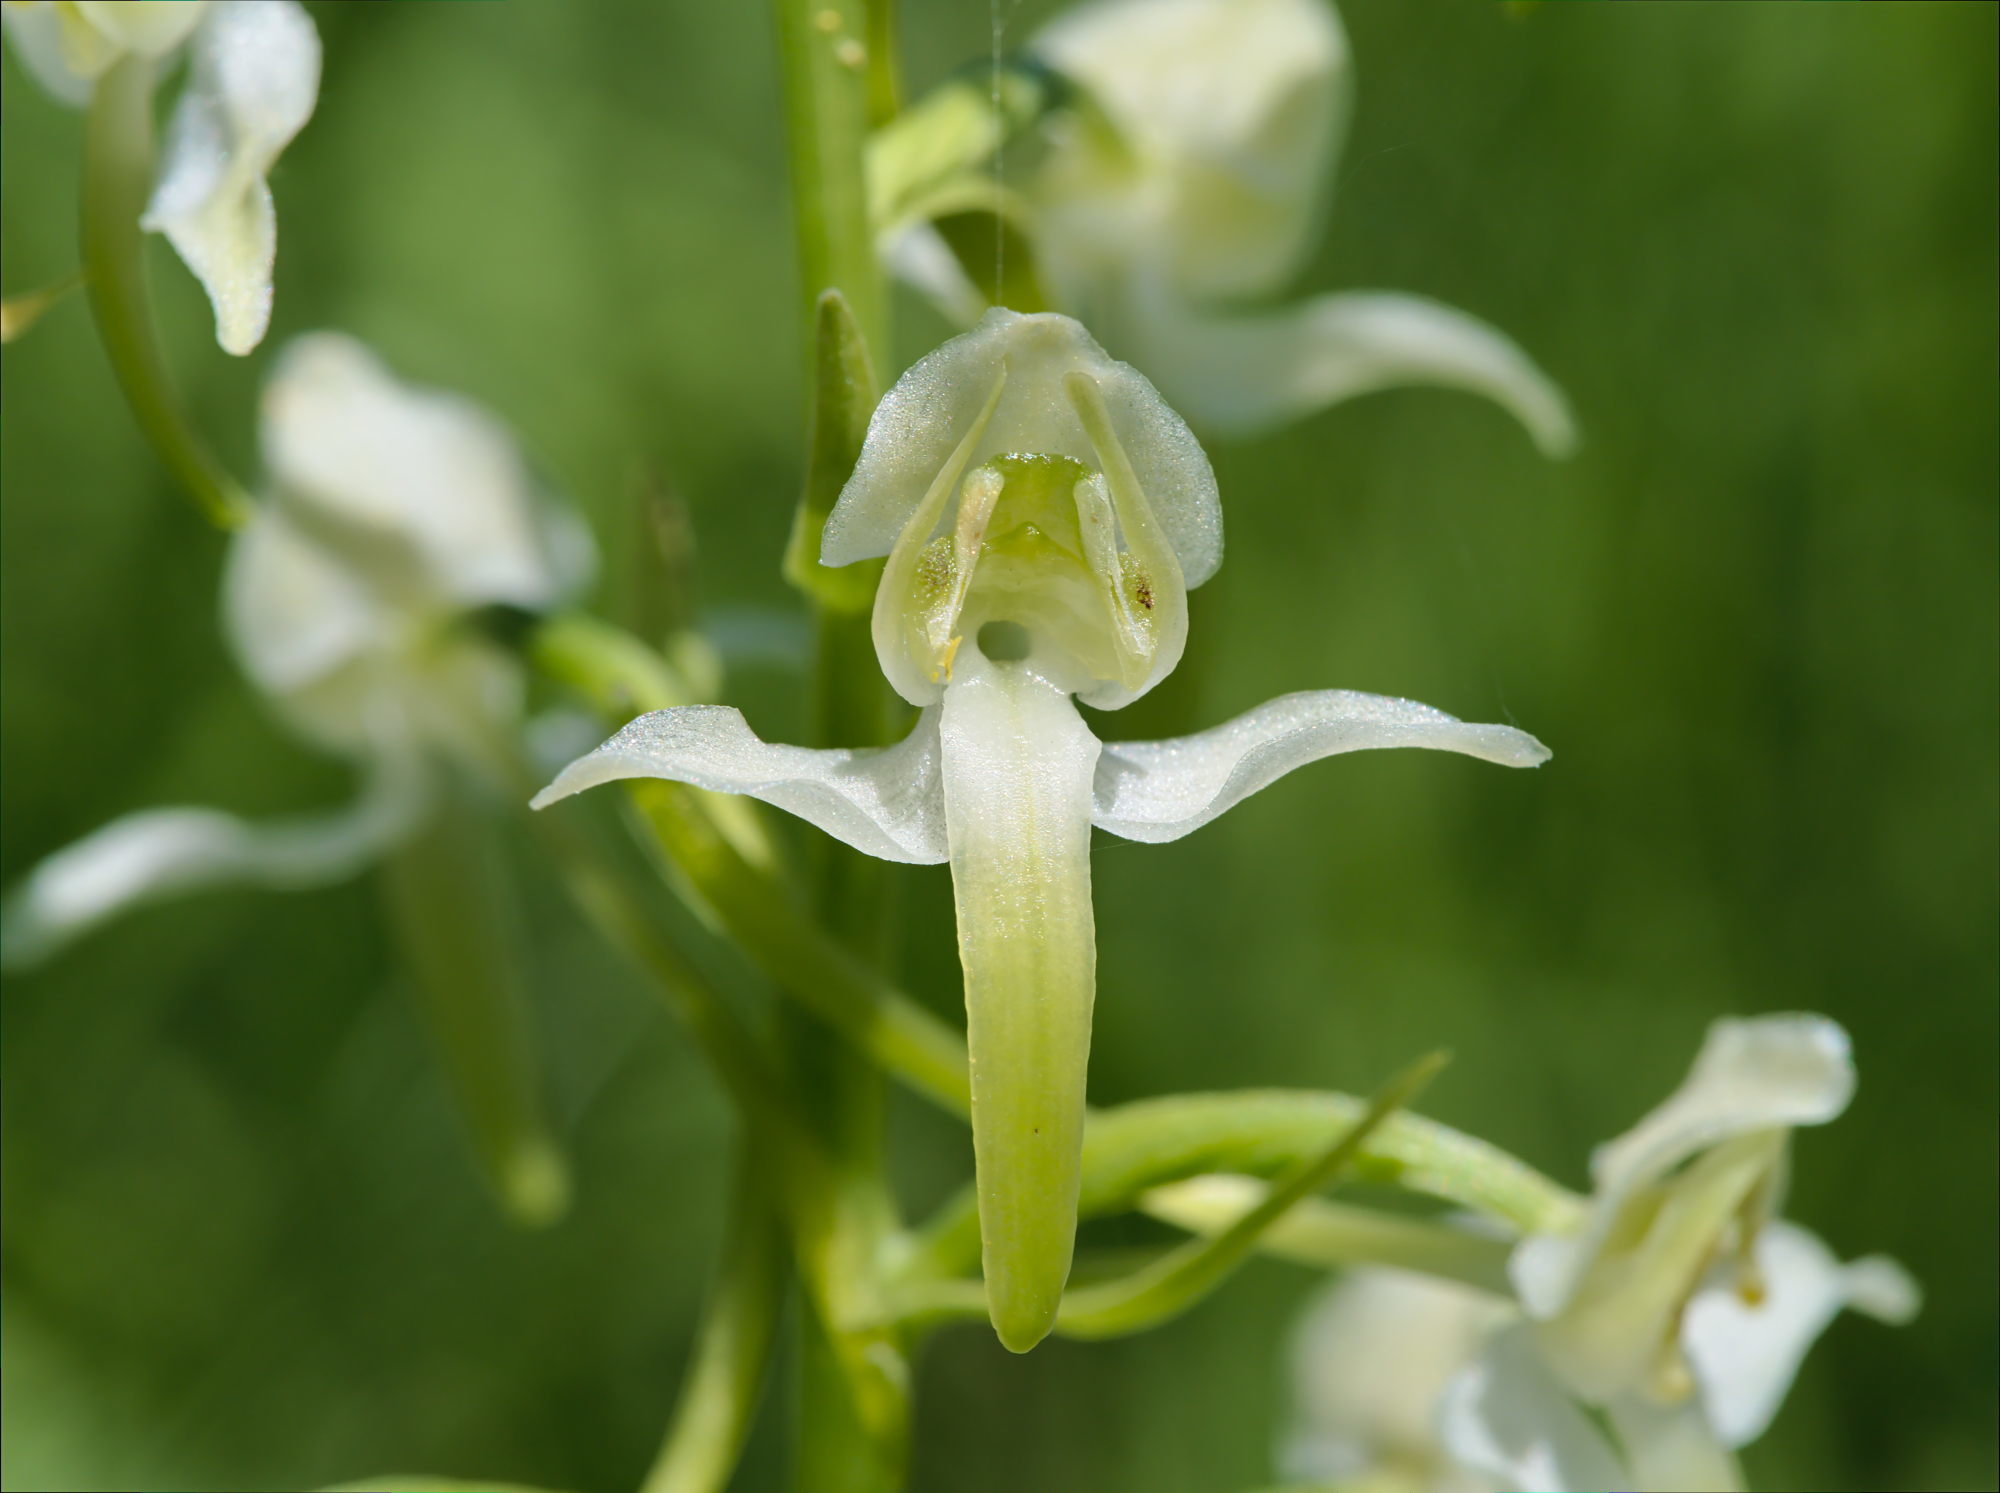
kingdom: Plantae
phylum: Tracheophyta
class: Liliopsida
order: Asparagales
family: Orchidaceae
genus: Platanthera
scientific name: Platanthera chlorantha
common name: Greater butterfly-orchid
